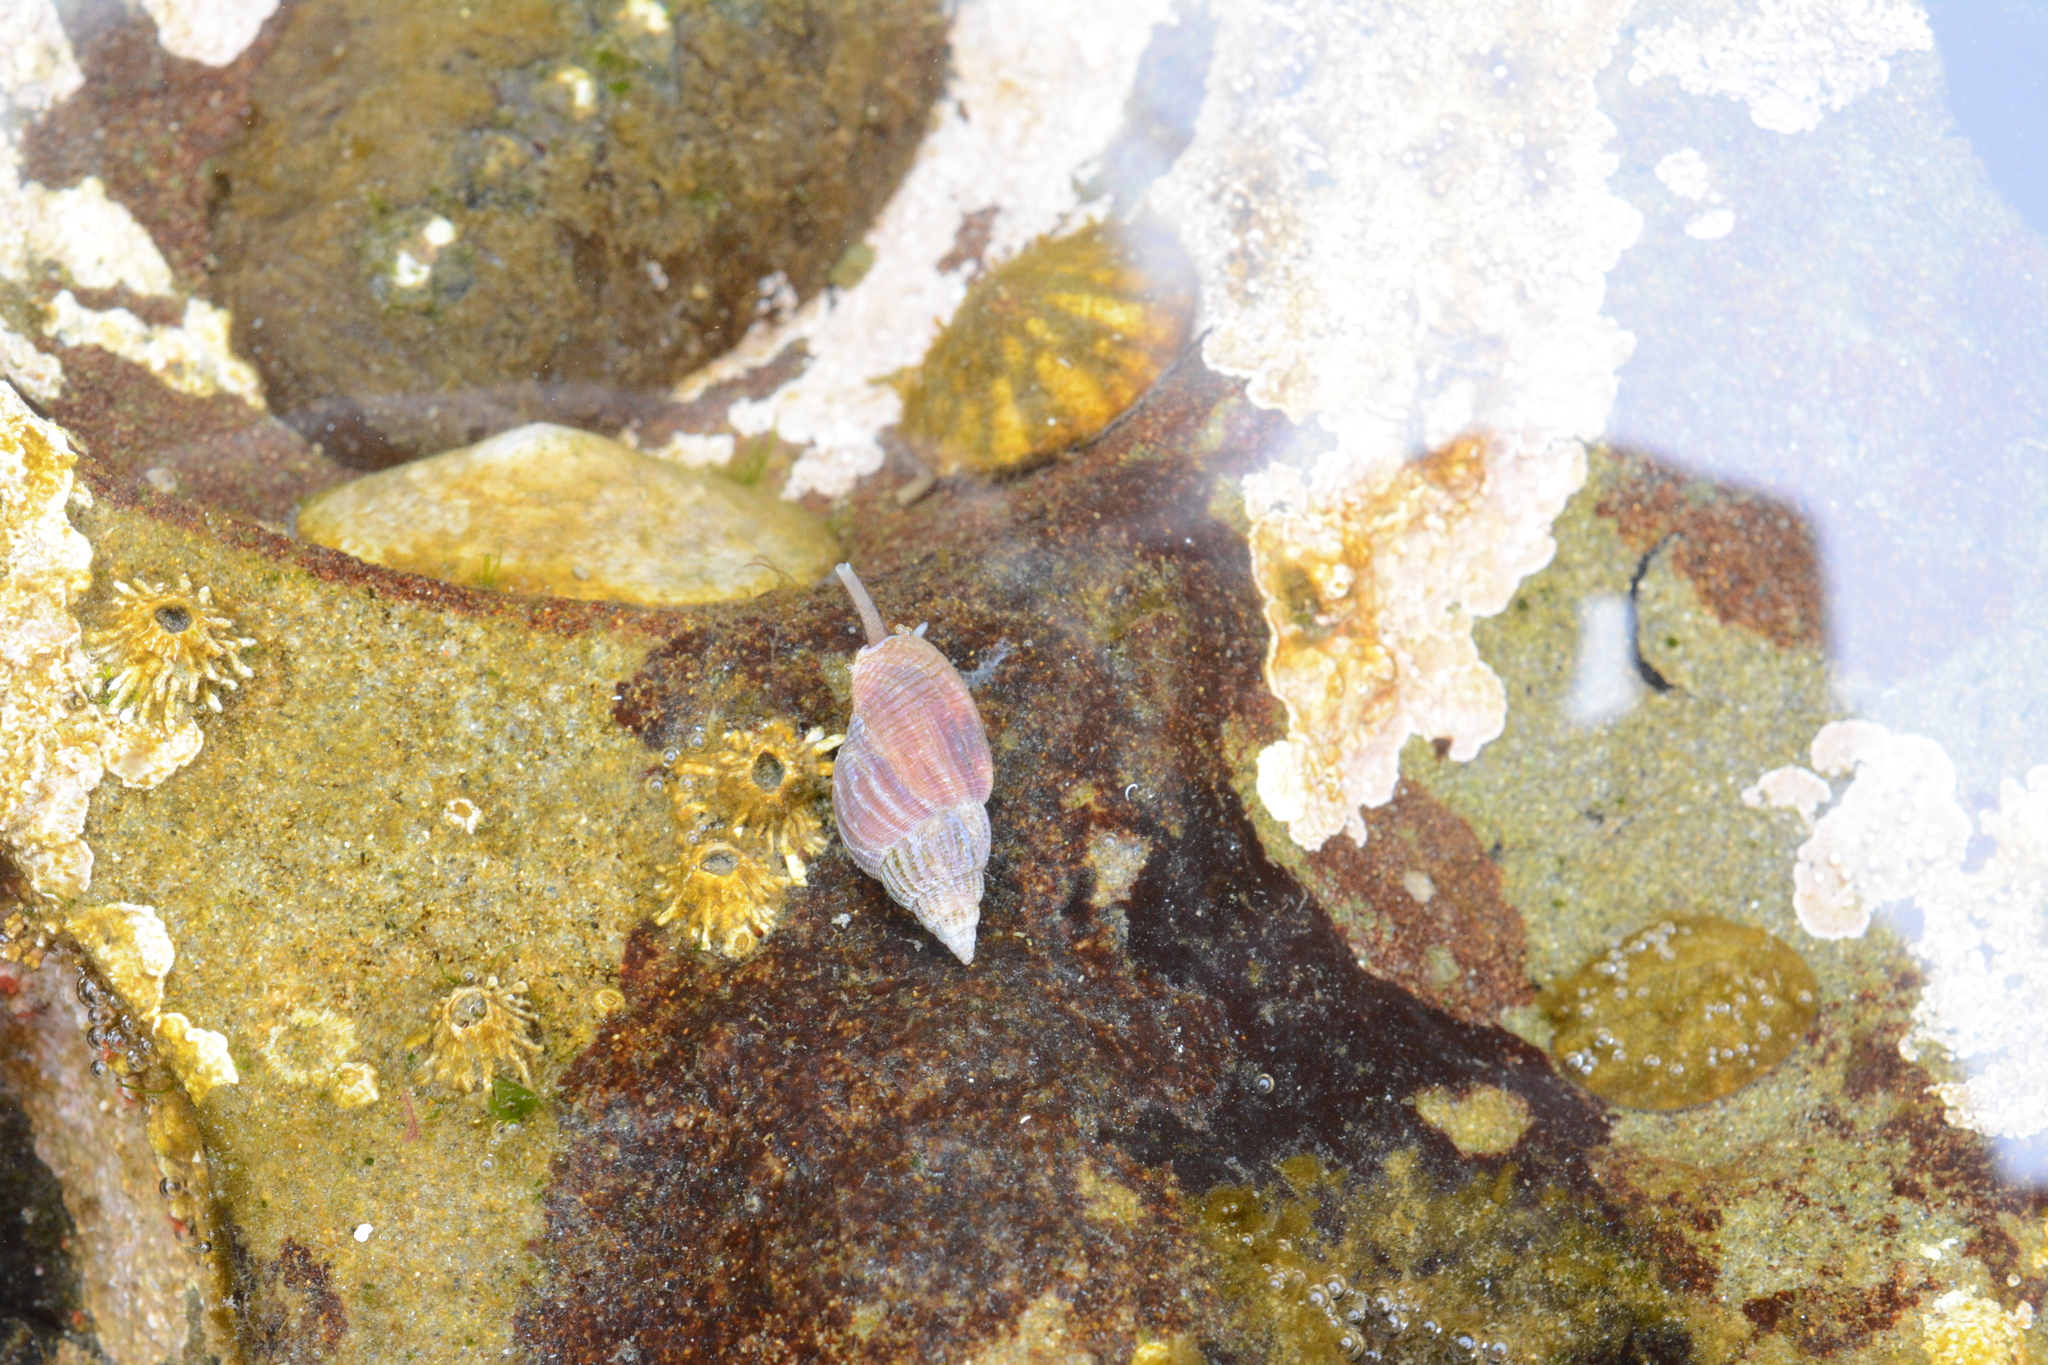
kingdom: Animalia
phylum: Mollusca
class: Gastropoda
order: Neogastropoda
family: Columbellidae
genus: Amphissa
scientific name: Amphissa columbiana
